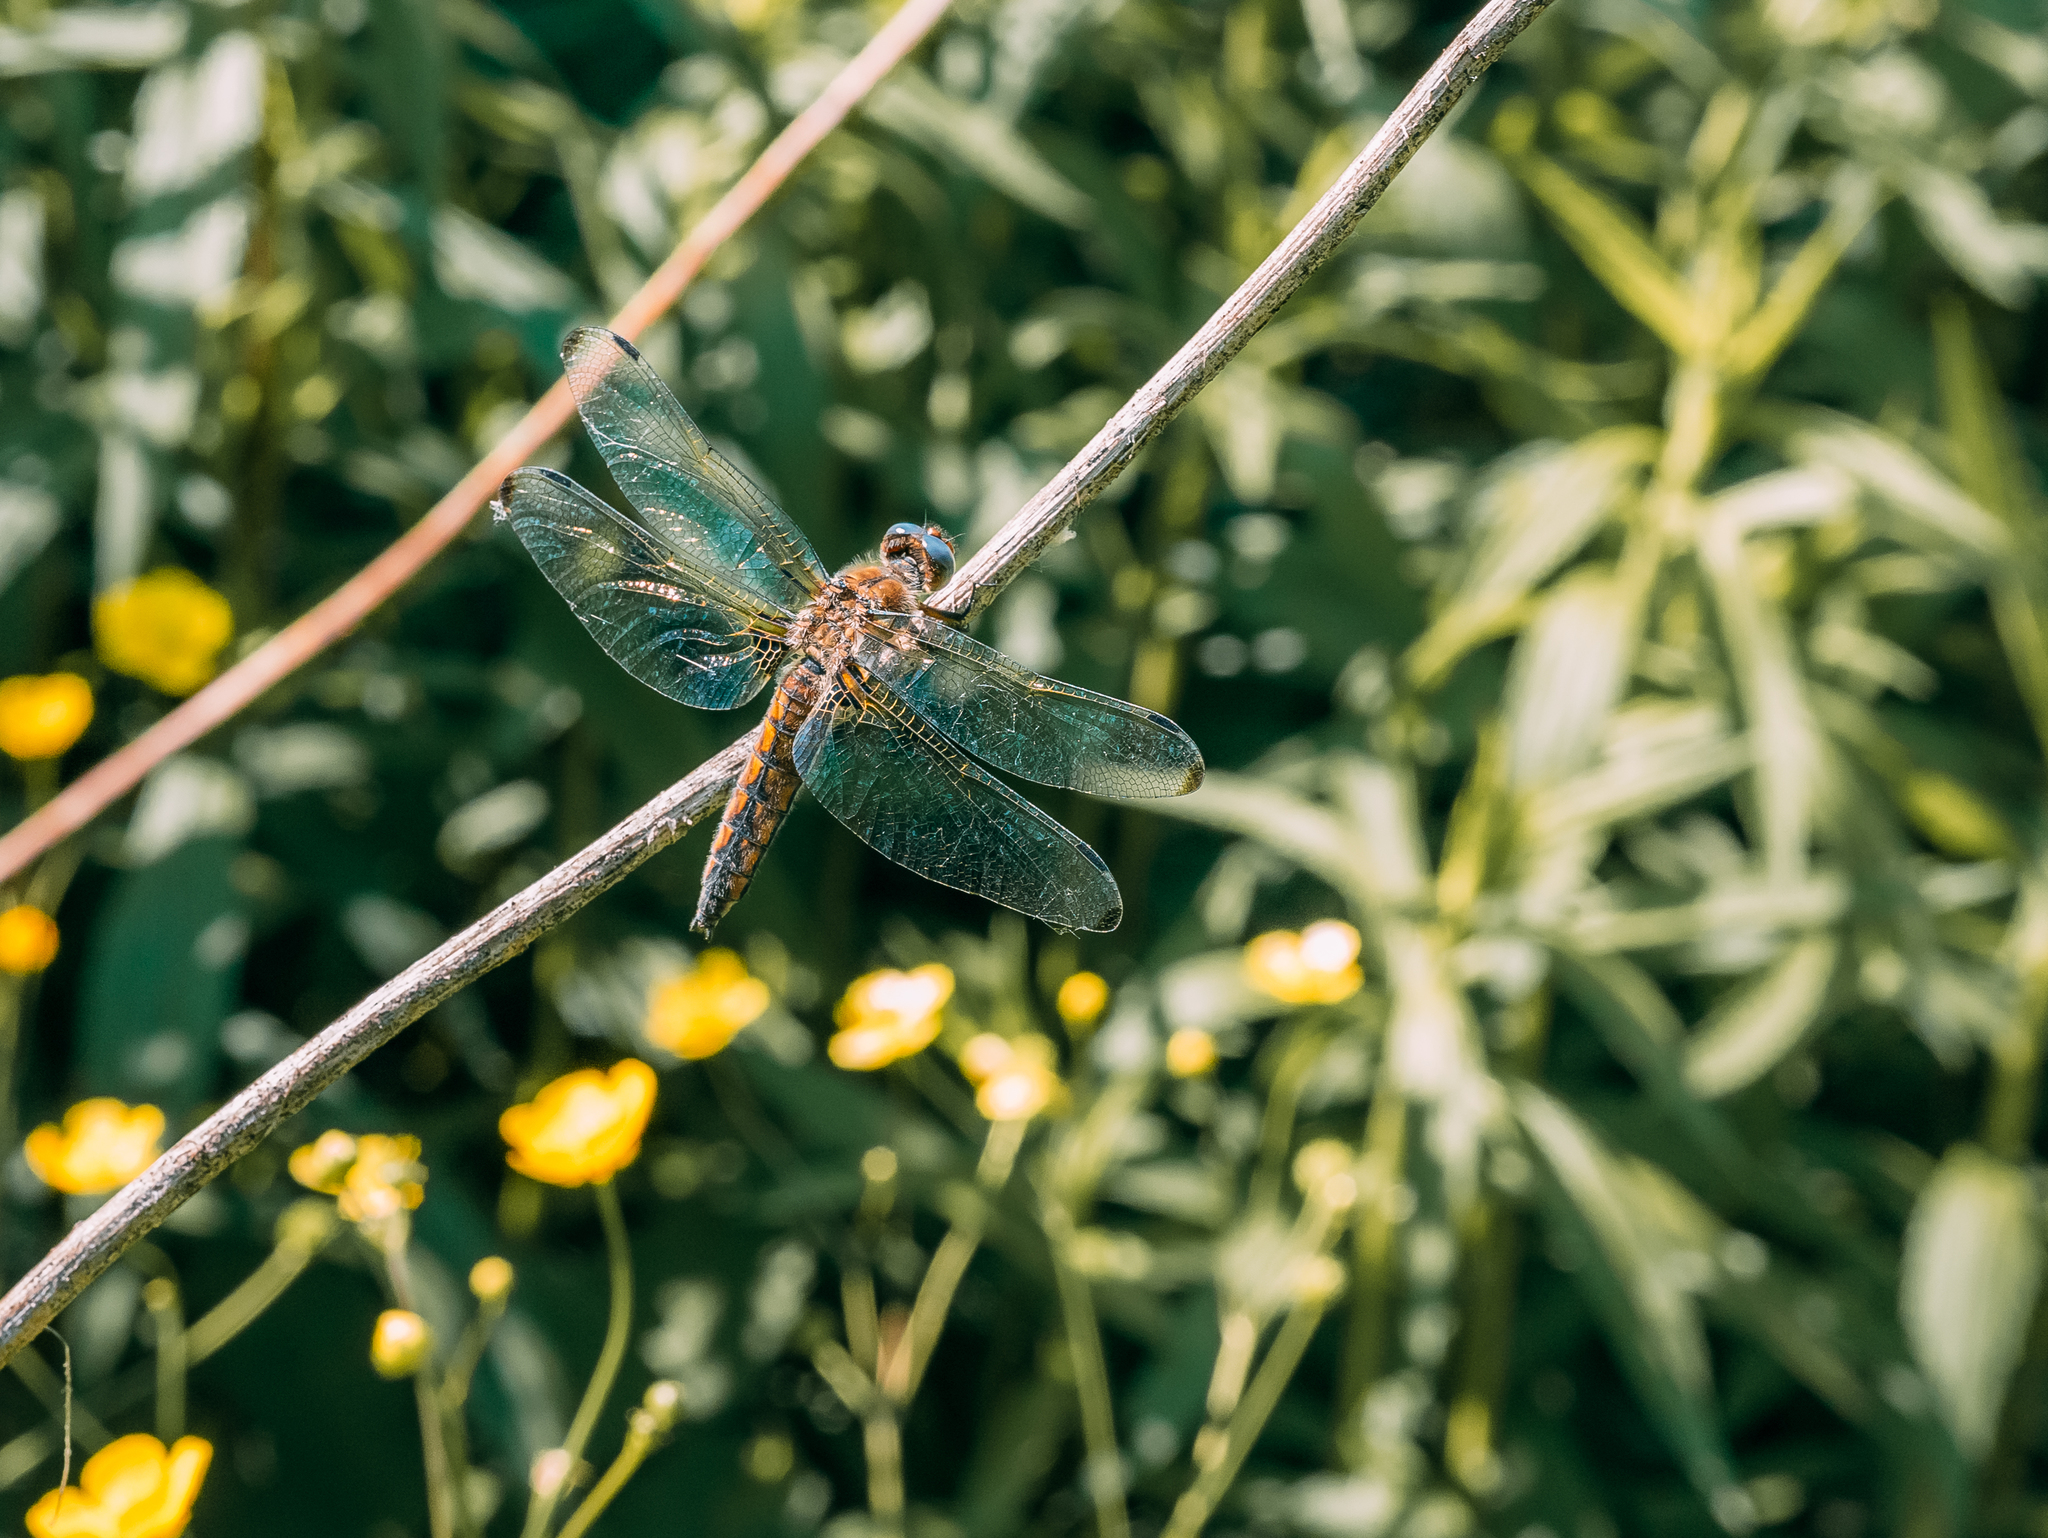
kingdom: Animalia
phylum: Arthropoda
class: Insecta
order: Odonata
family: Libellulidae
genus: Libellula
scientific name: Libellula fulva
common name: Blue chaser
